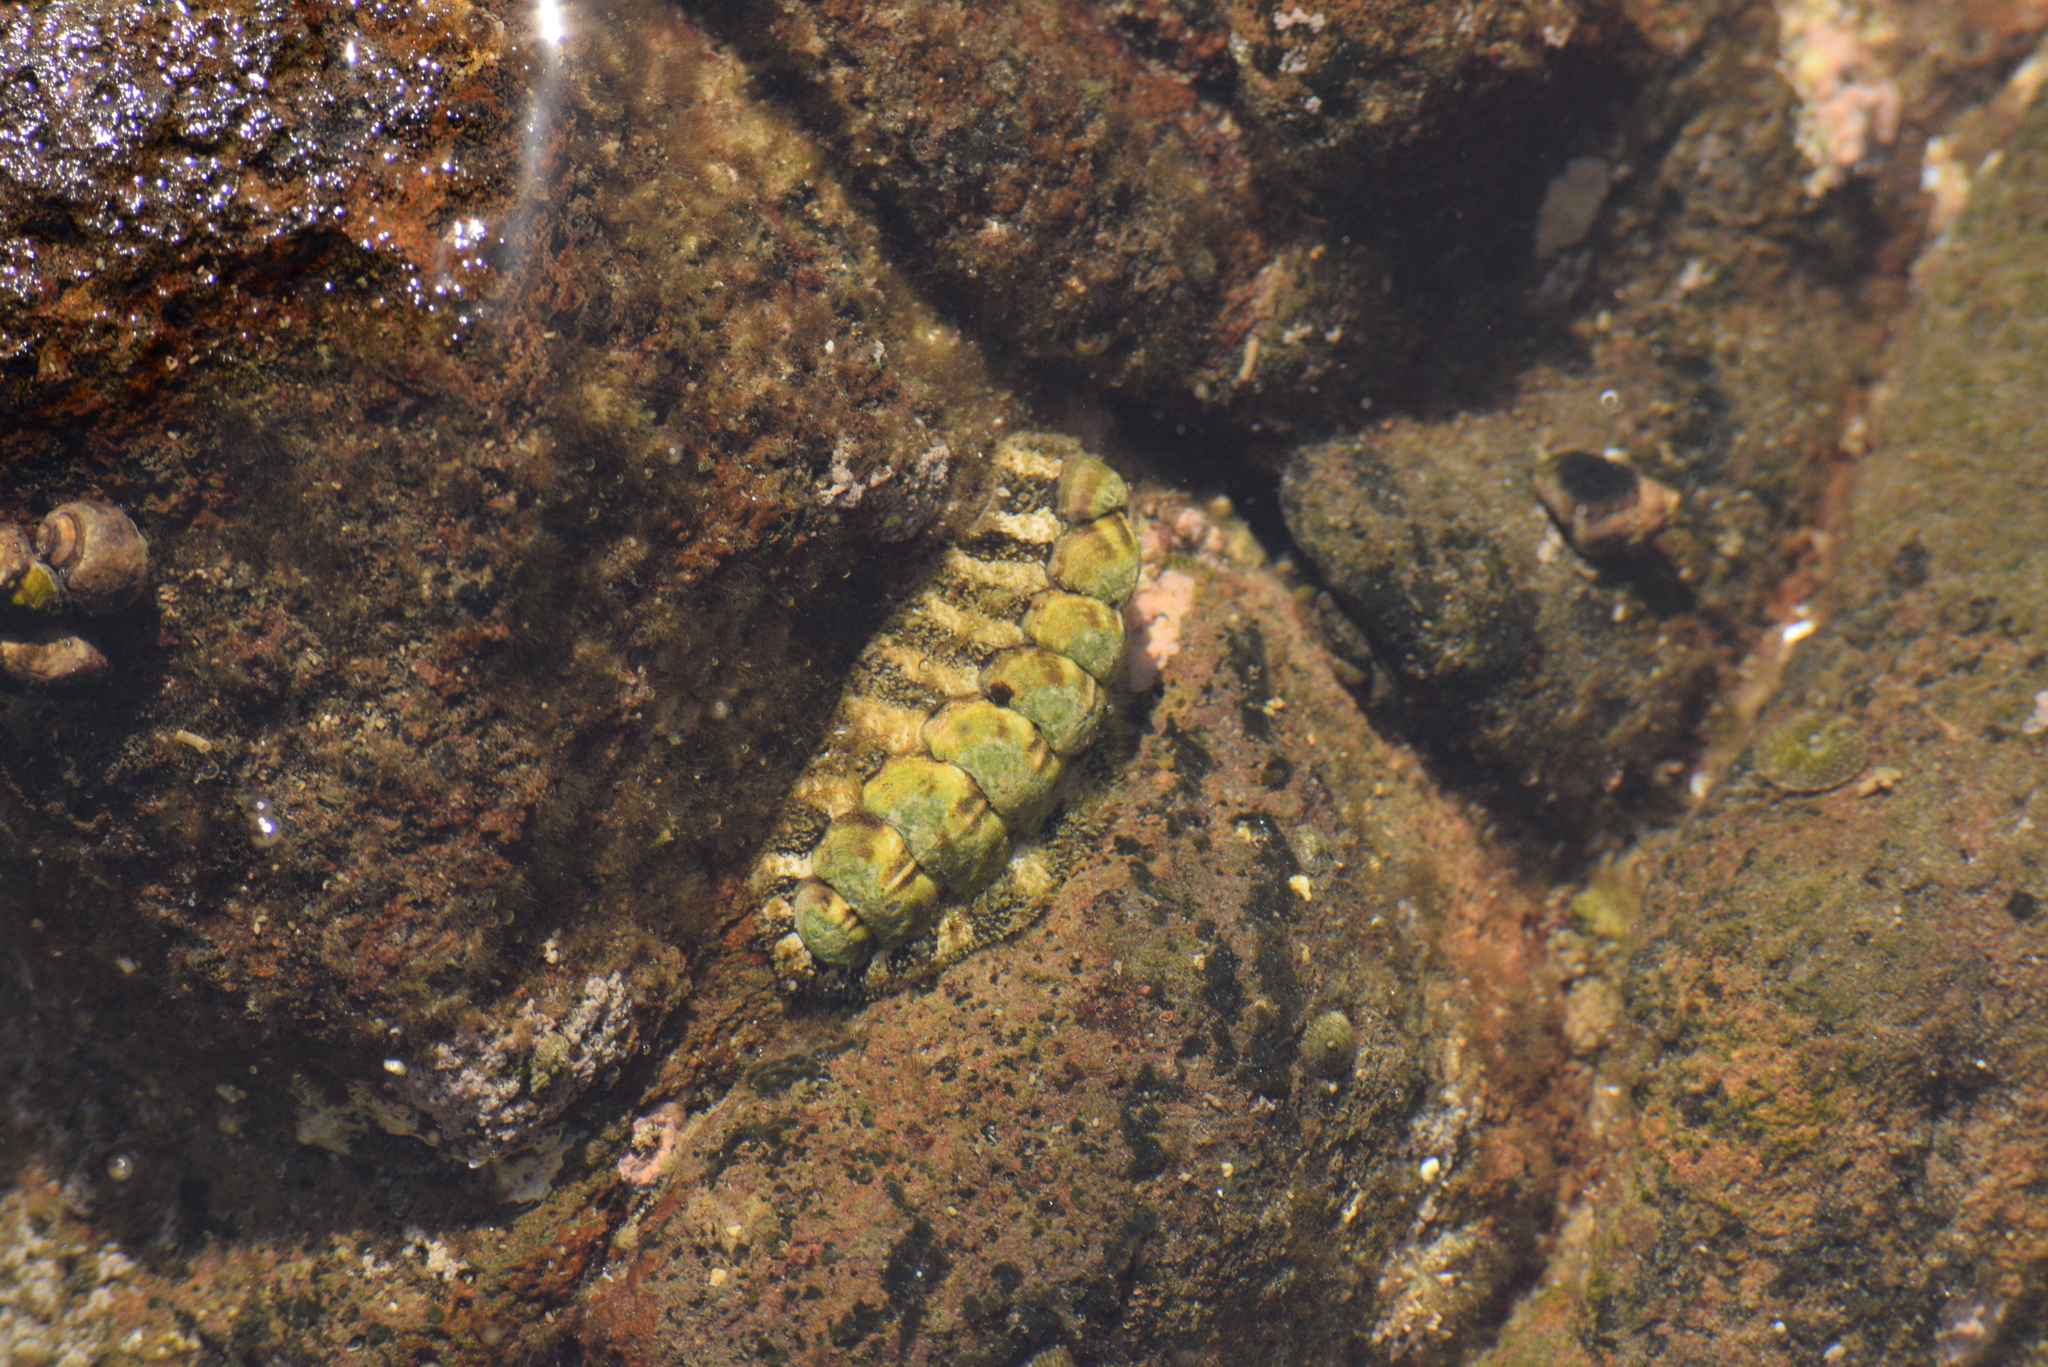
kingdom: Animalia
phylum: Mollusca
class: Polyplacophora
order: Chitonida
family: Tonicellidae
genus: Nuttallina
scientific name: Nuttallina californica
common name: California nuttall chiton
